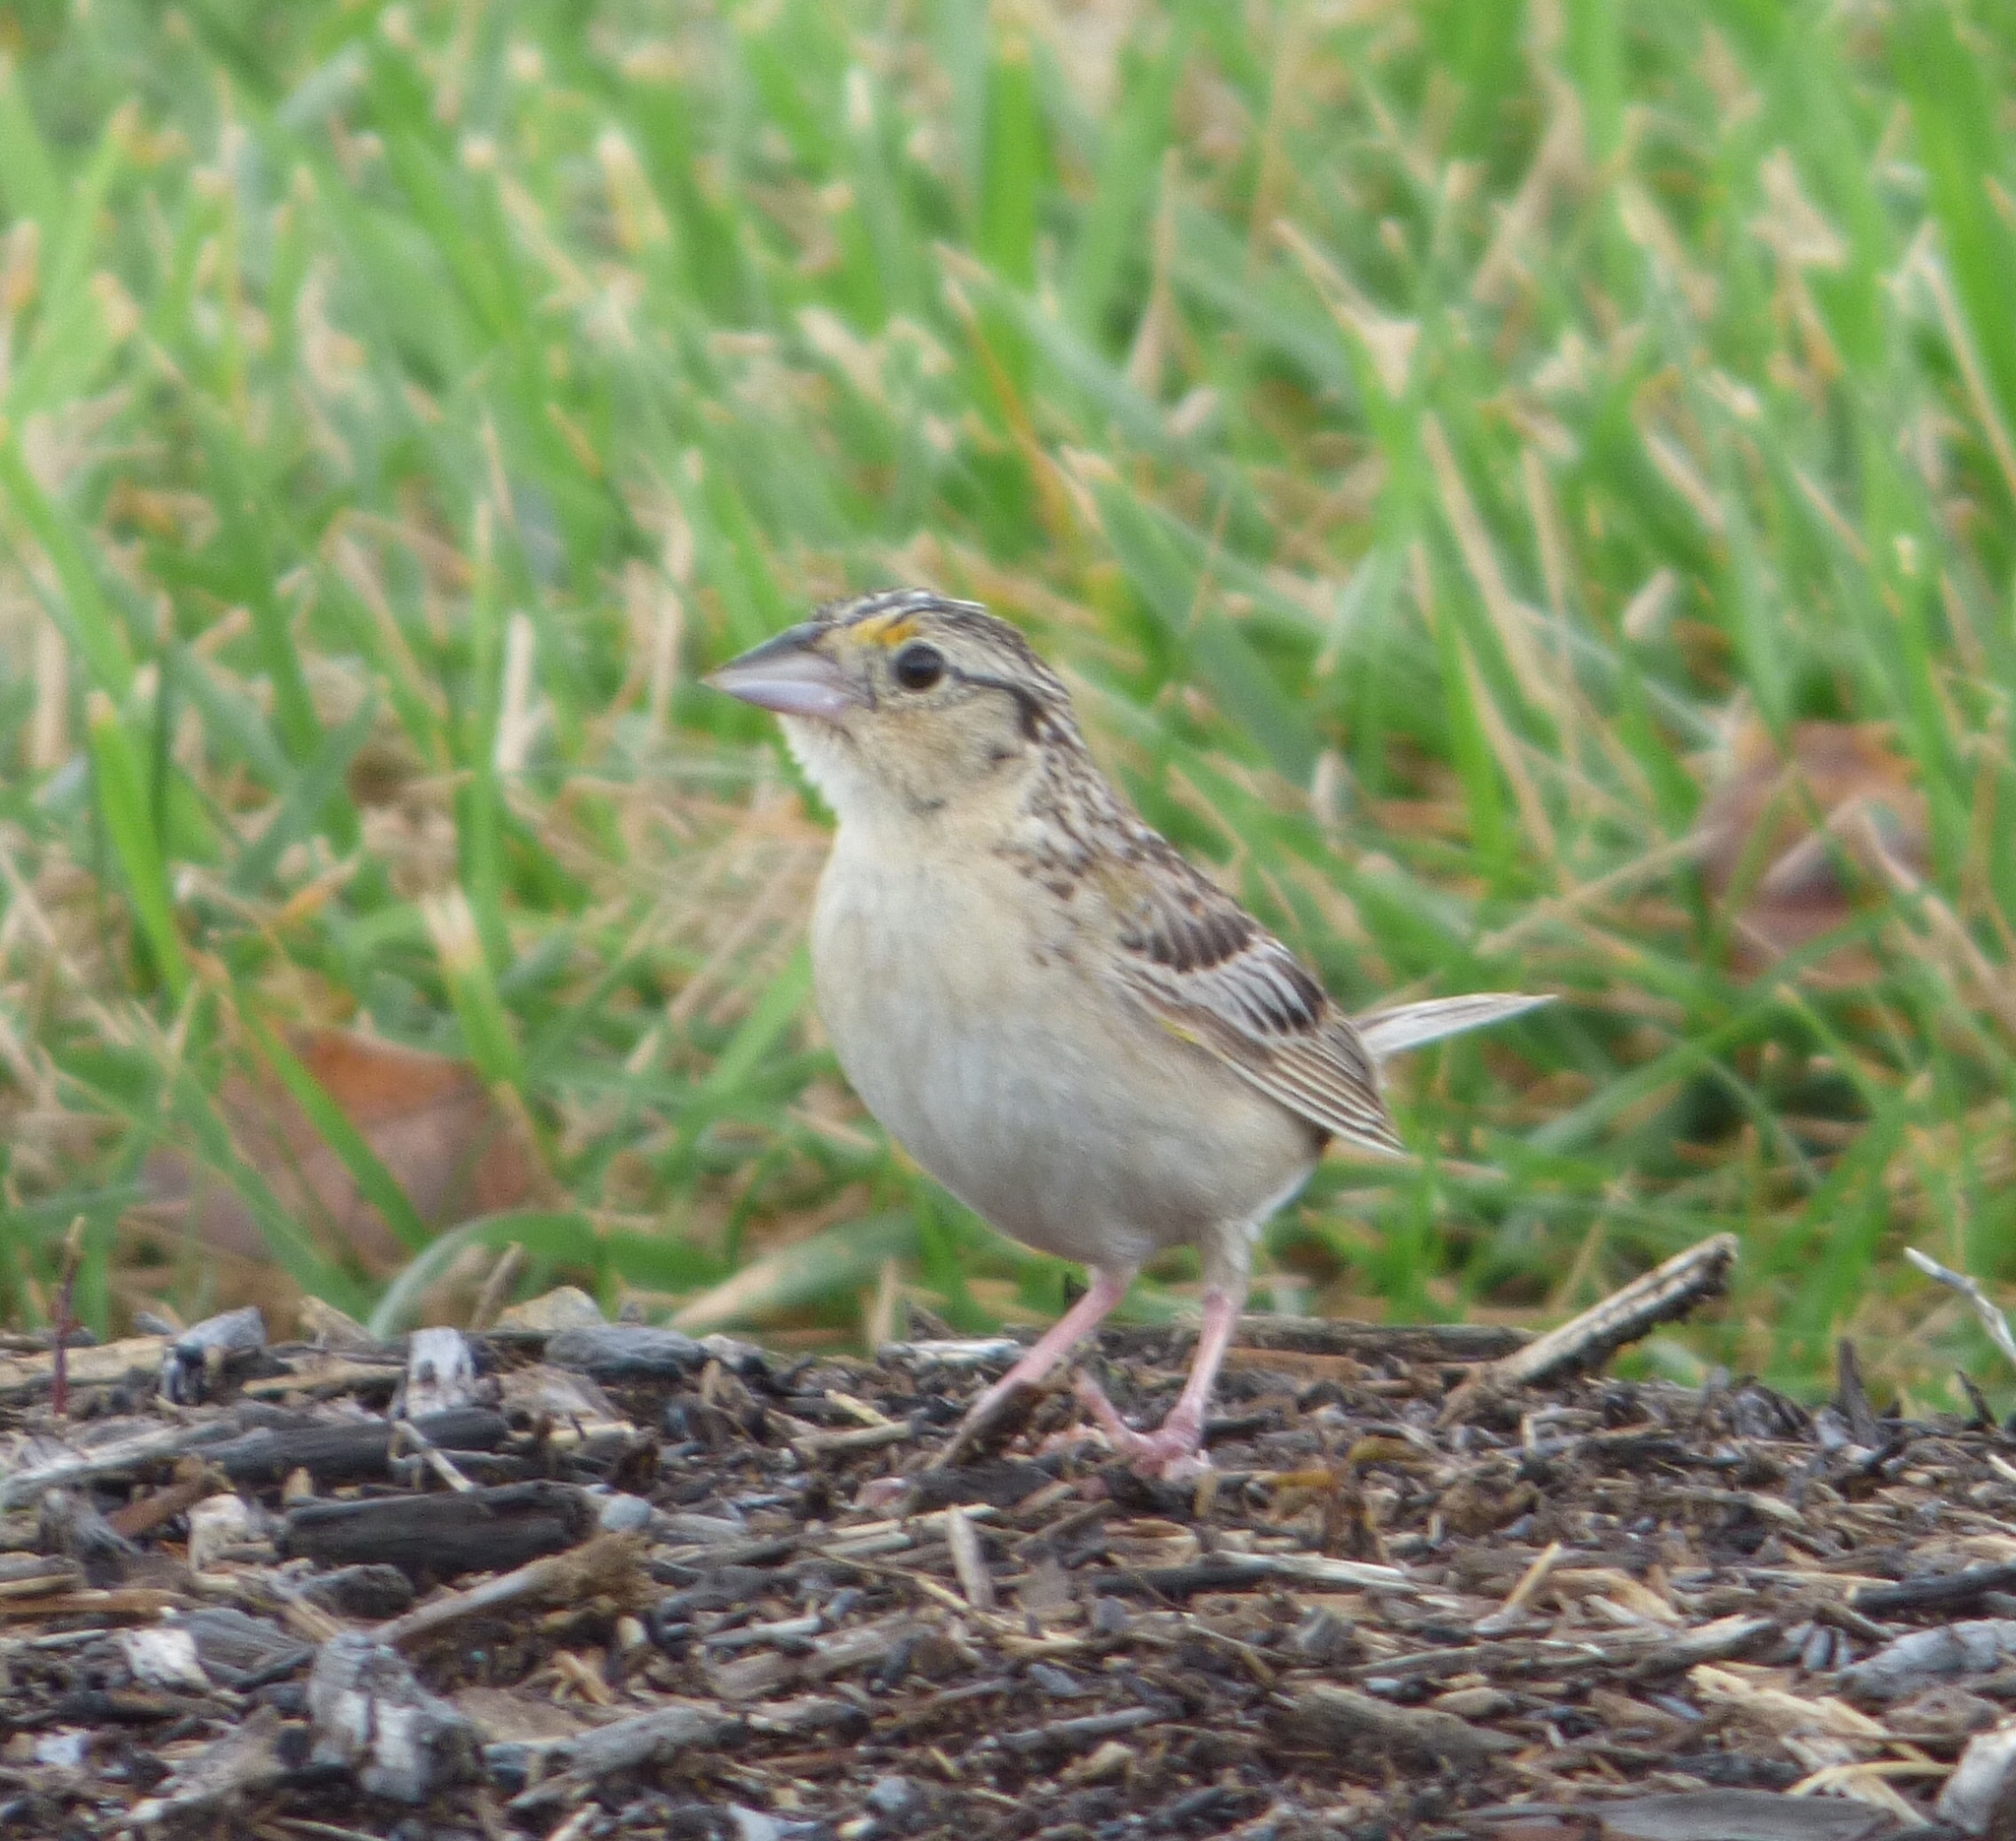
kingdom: Animalia
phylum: Chordata
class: Aves
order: Passeriformes
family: Passerellidae
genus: Ammodramus
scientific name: Ammodramus savannarum
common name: Grasshopper sparrow
